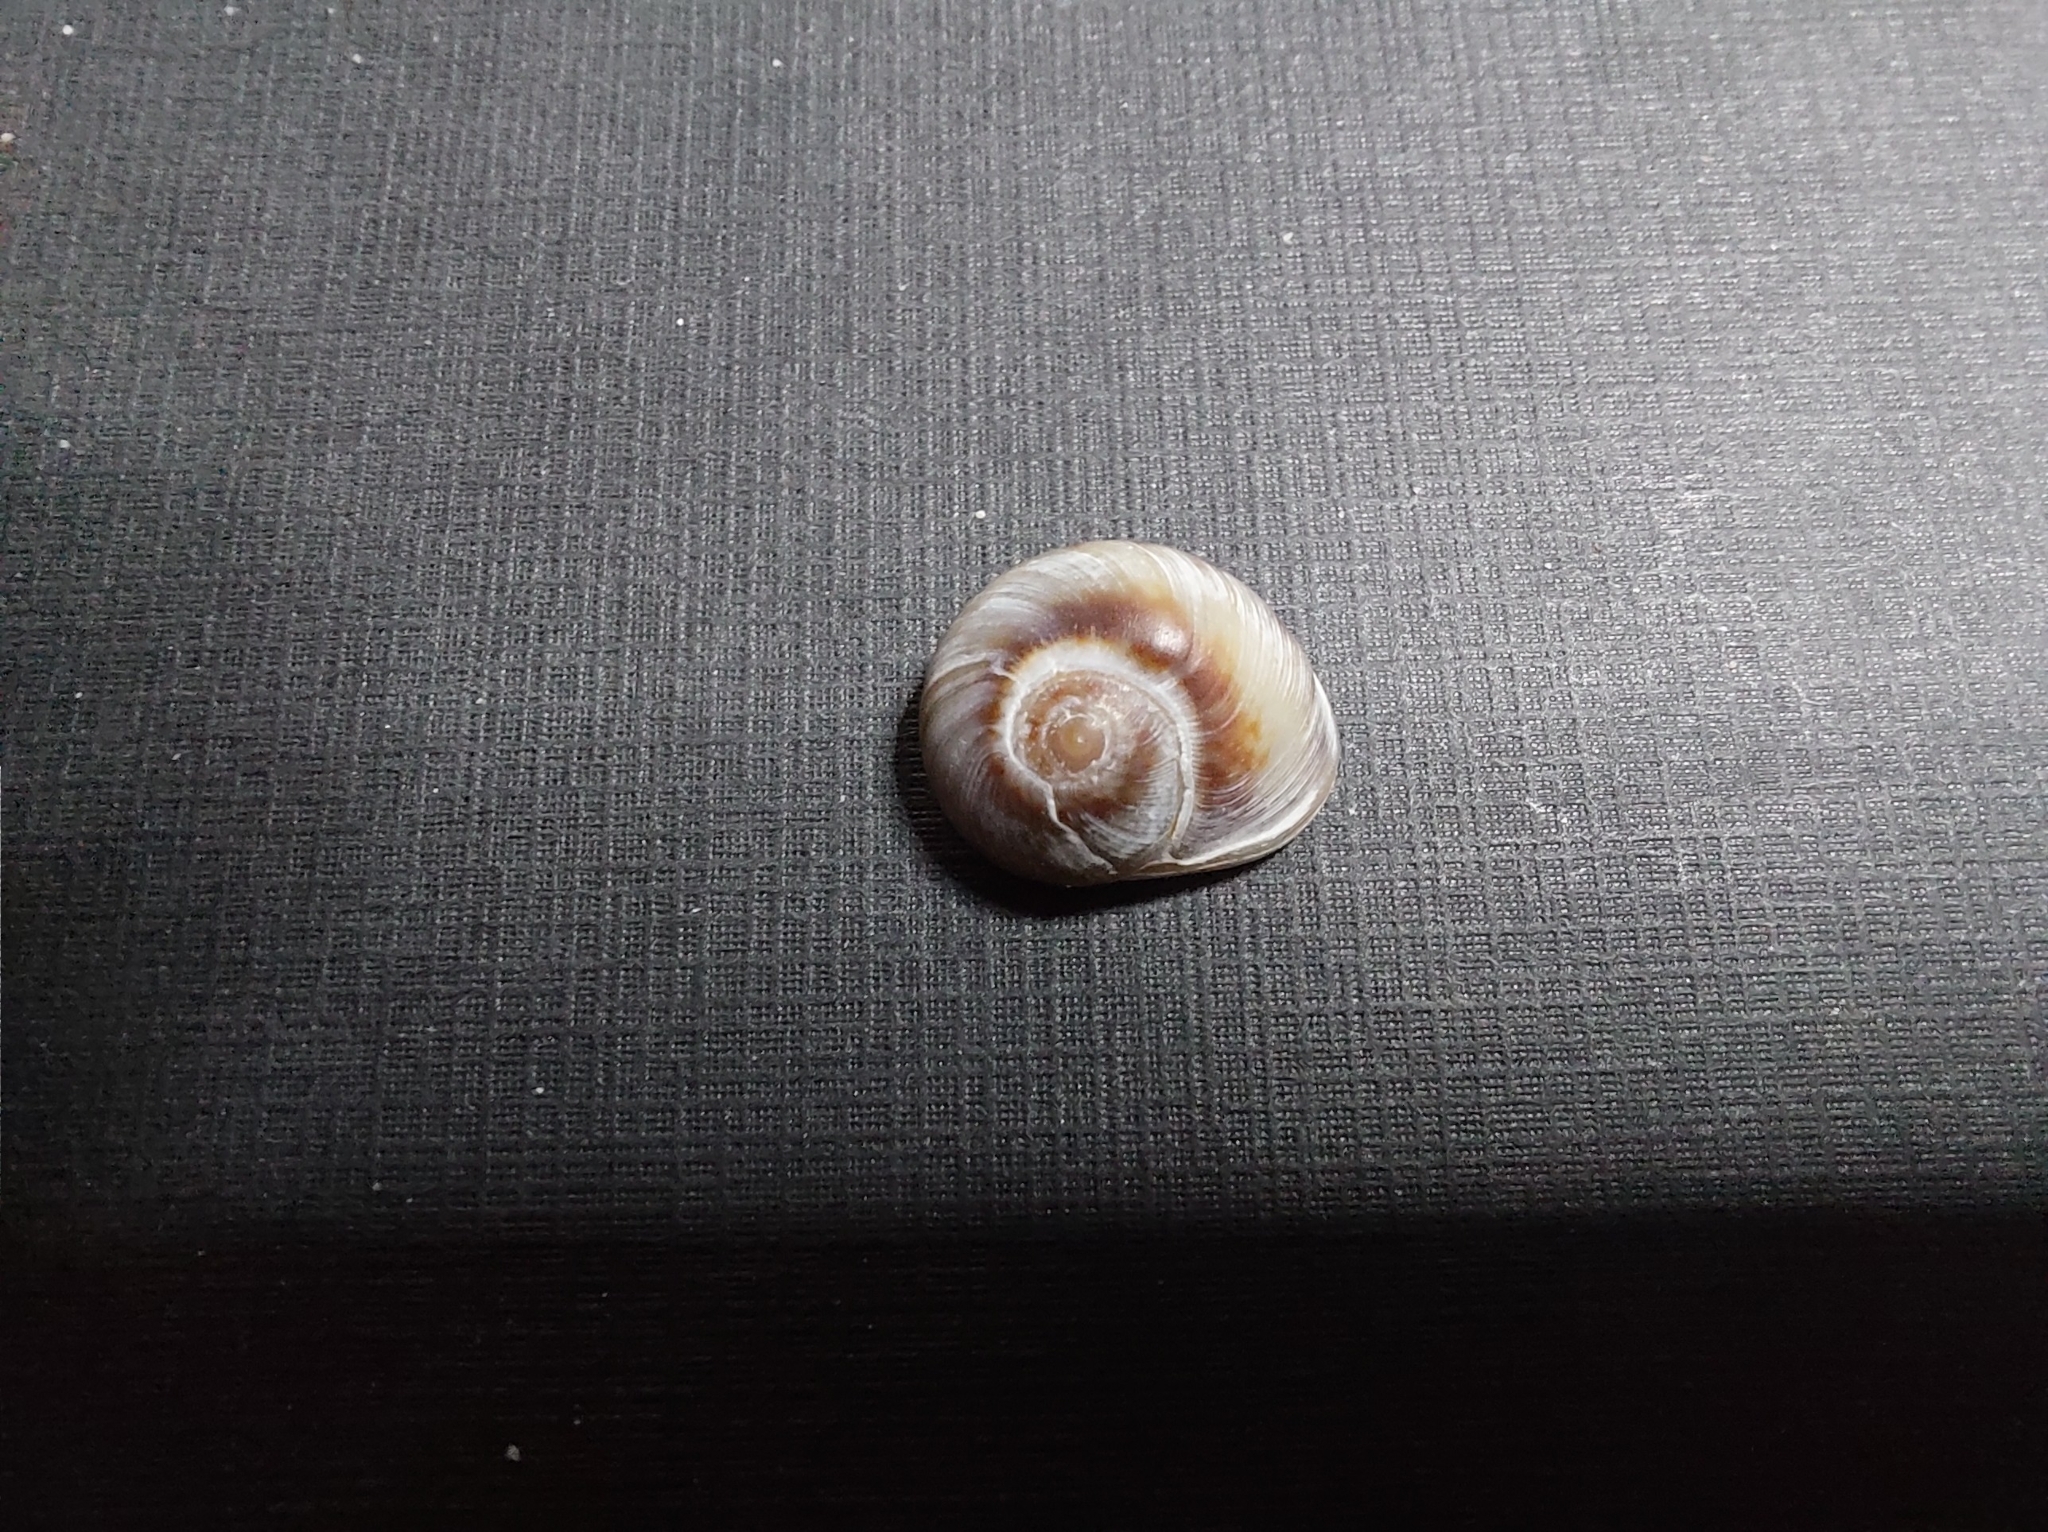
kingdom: Animalia
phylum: Mollusca
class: Gastropoda
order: Neogastropoda
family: Nassariidae
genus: Tritia
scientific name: Tritia neritea
